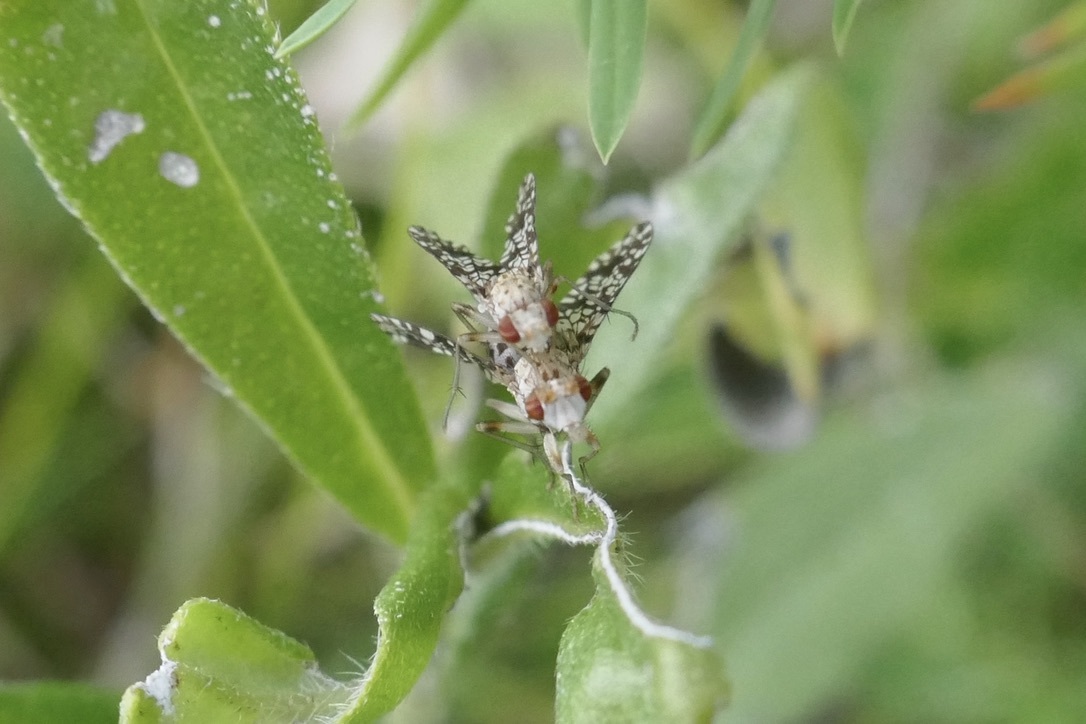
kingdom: Animalia
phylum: Arthropoda
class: Insecta
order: Diptera
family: Sciomyzidae
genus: Trypetoptera
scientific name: Trypetoptera punctulata
